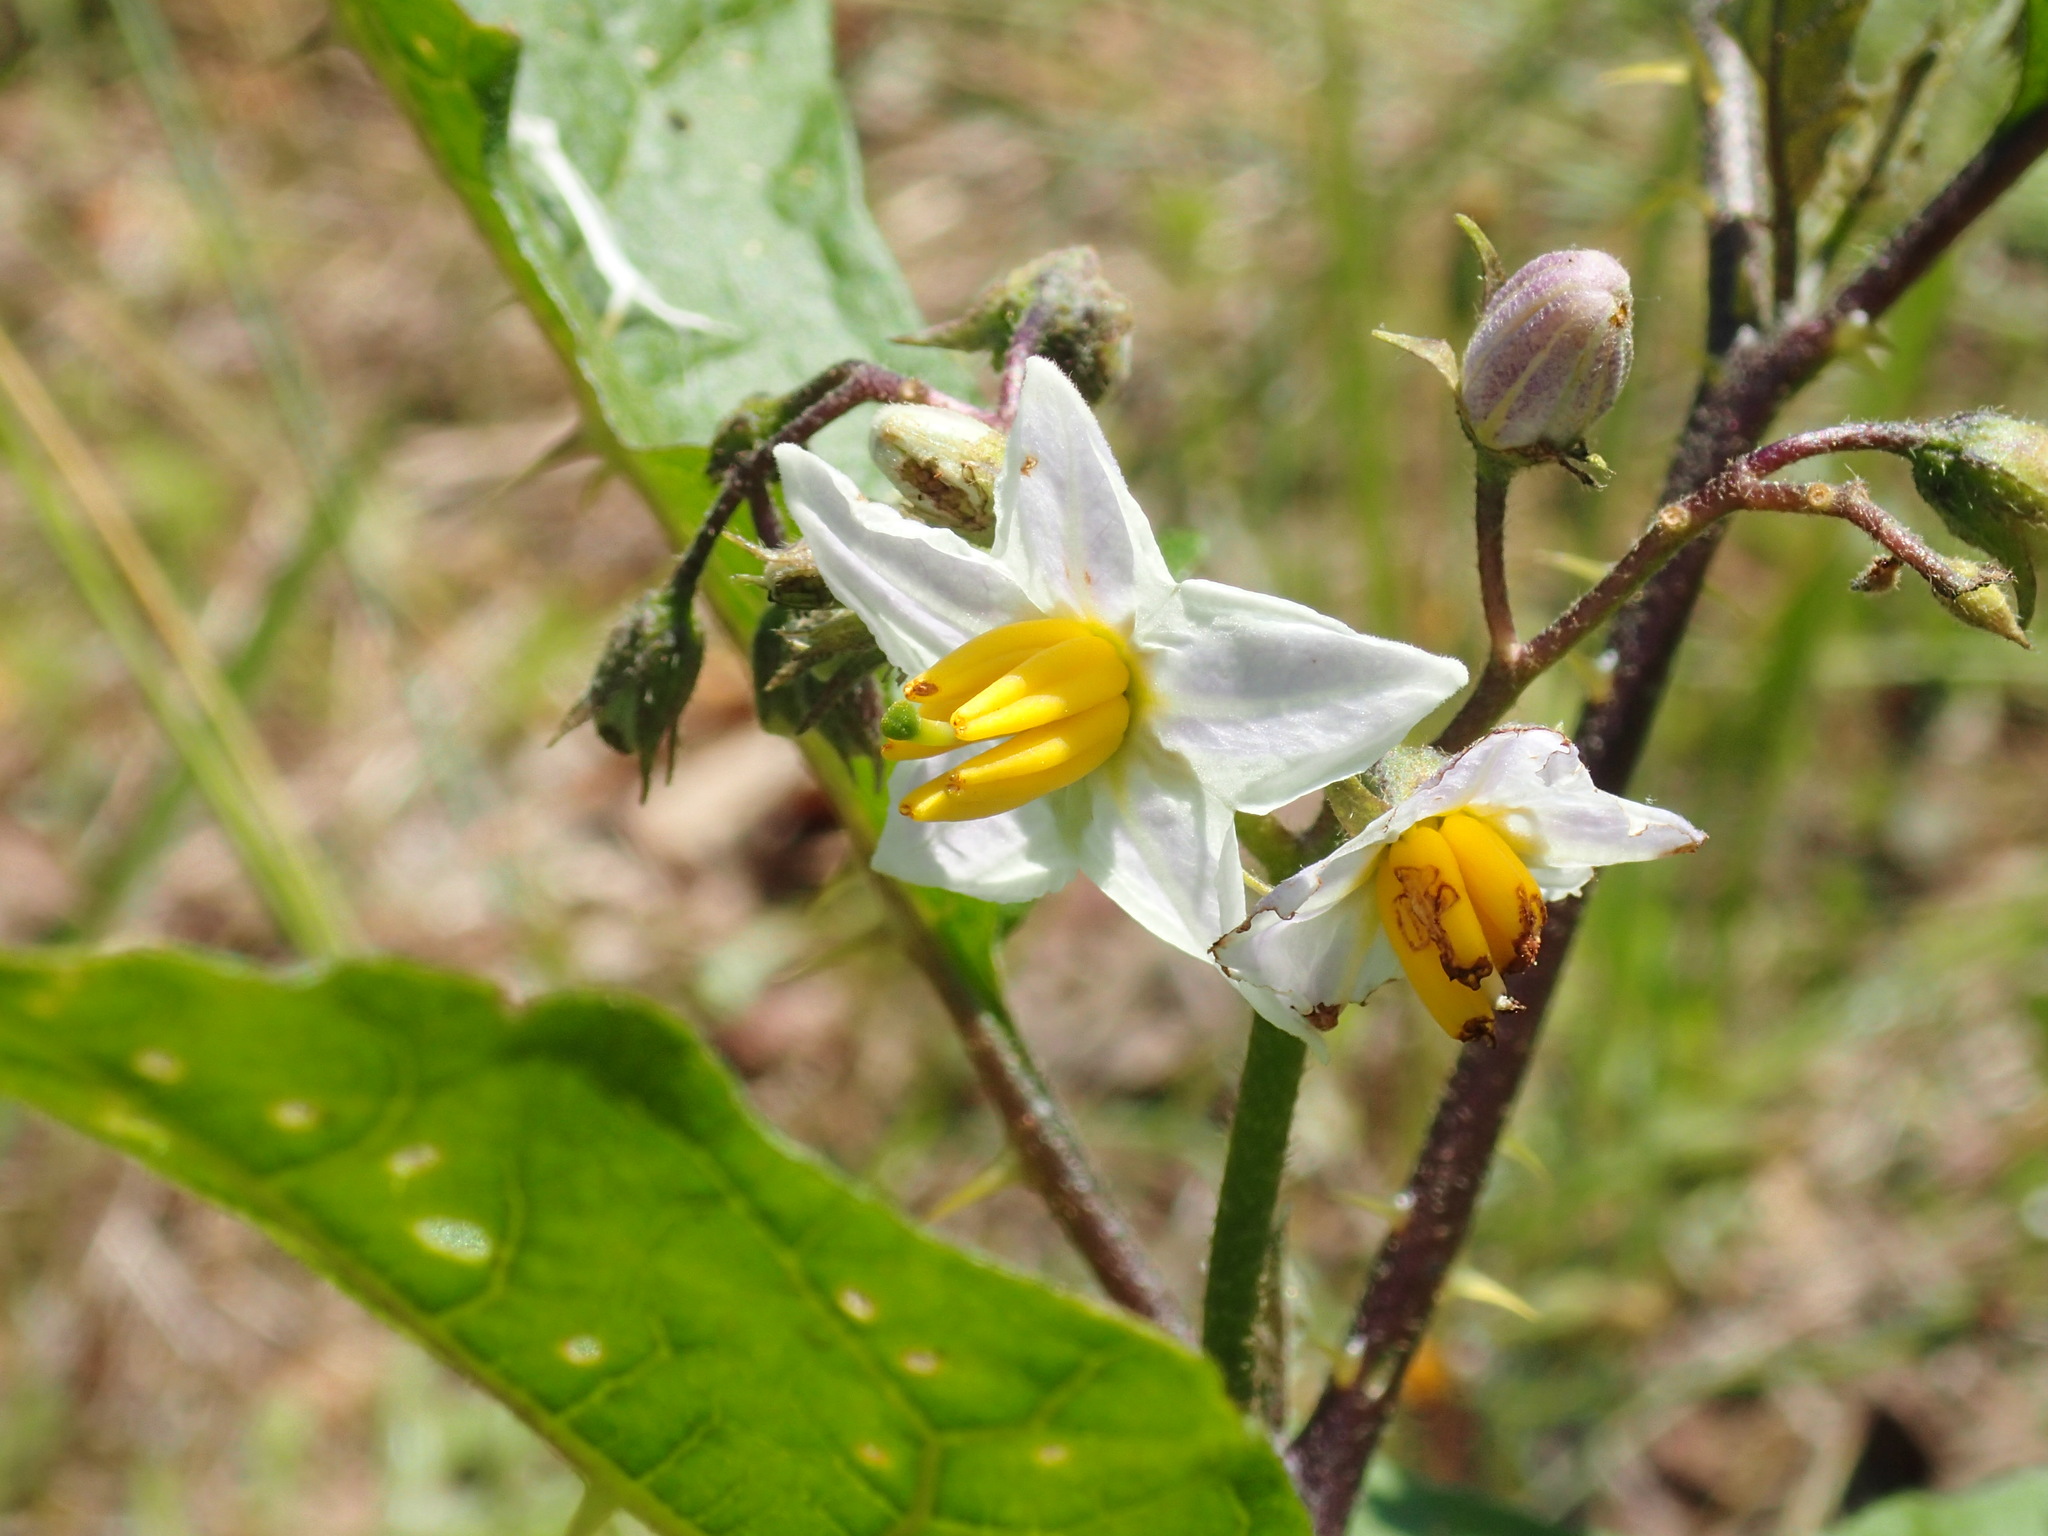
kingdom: Plantae
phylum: Tracheophyta
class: Magnoliopsida
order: Solanales
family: Solanaceae
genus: Solanum
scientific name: Solanum carolinense
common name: Horse-nettle
